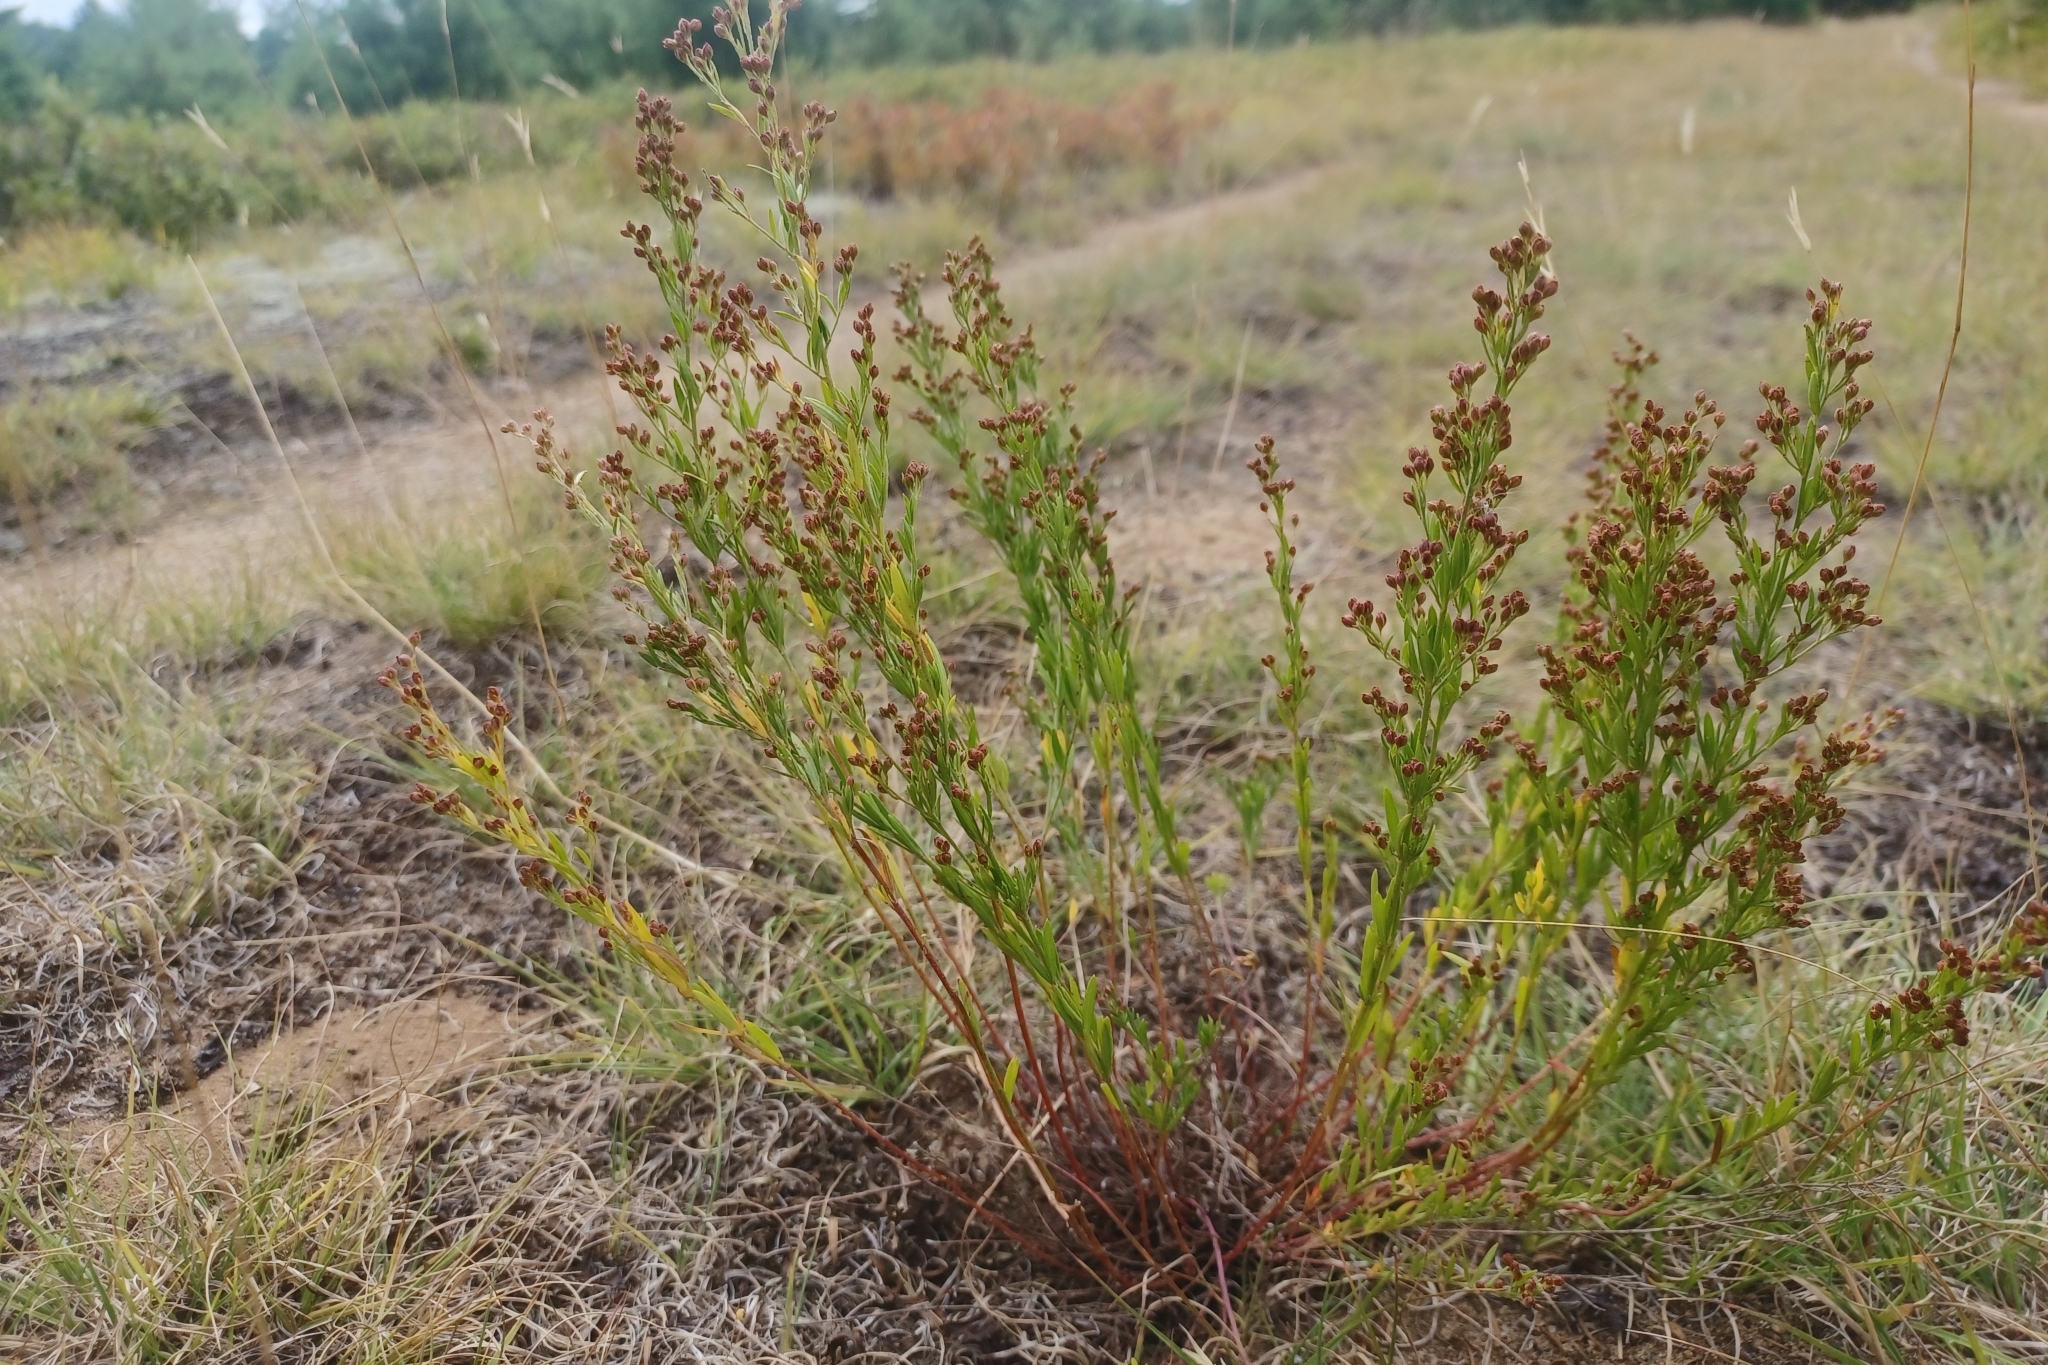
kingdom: Plantae
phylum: Tracheophyta
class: Magnoliopsida
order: Malvales
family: Cistaceae
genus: Lechea
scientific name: Lechea intermedia
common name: Intermediate pinweed
